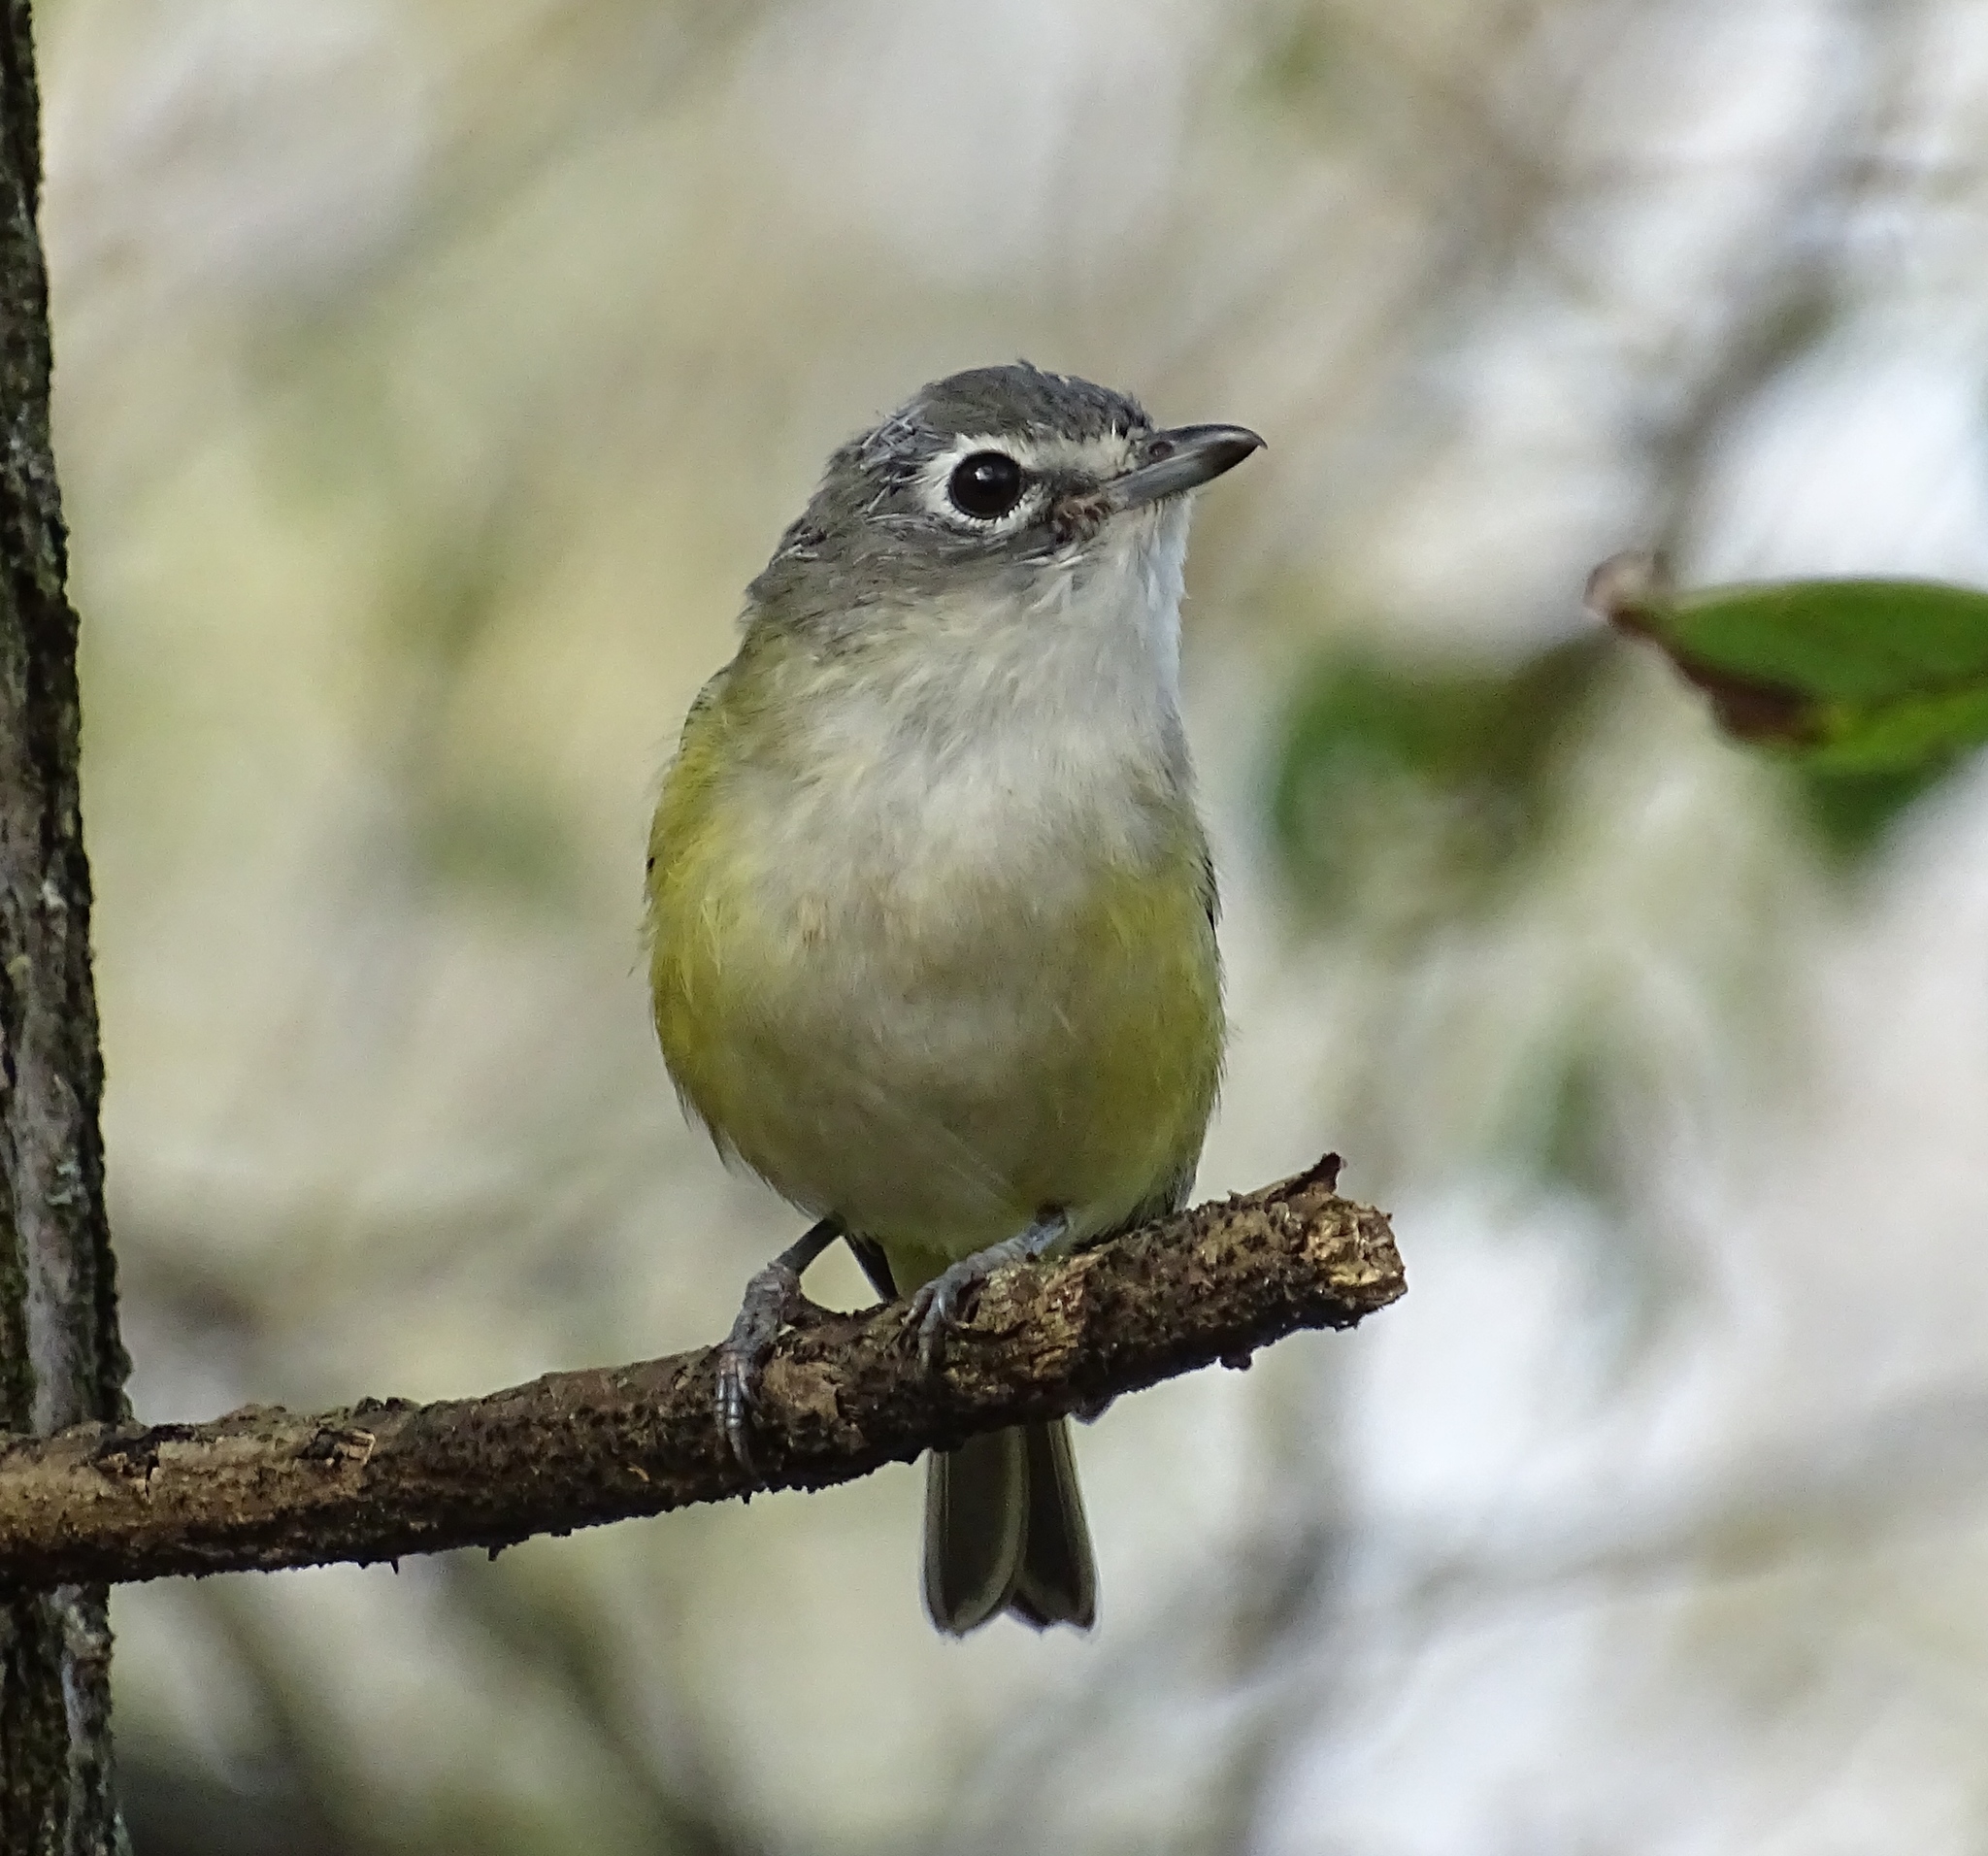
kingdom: Animalia
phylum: Chordata
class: Aves
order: Passeriformes
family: Vireonidae
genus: Vireo
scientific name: Vireo solitarius
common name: Blue-headed vireo
